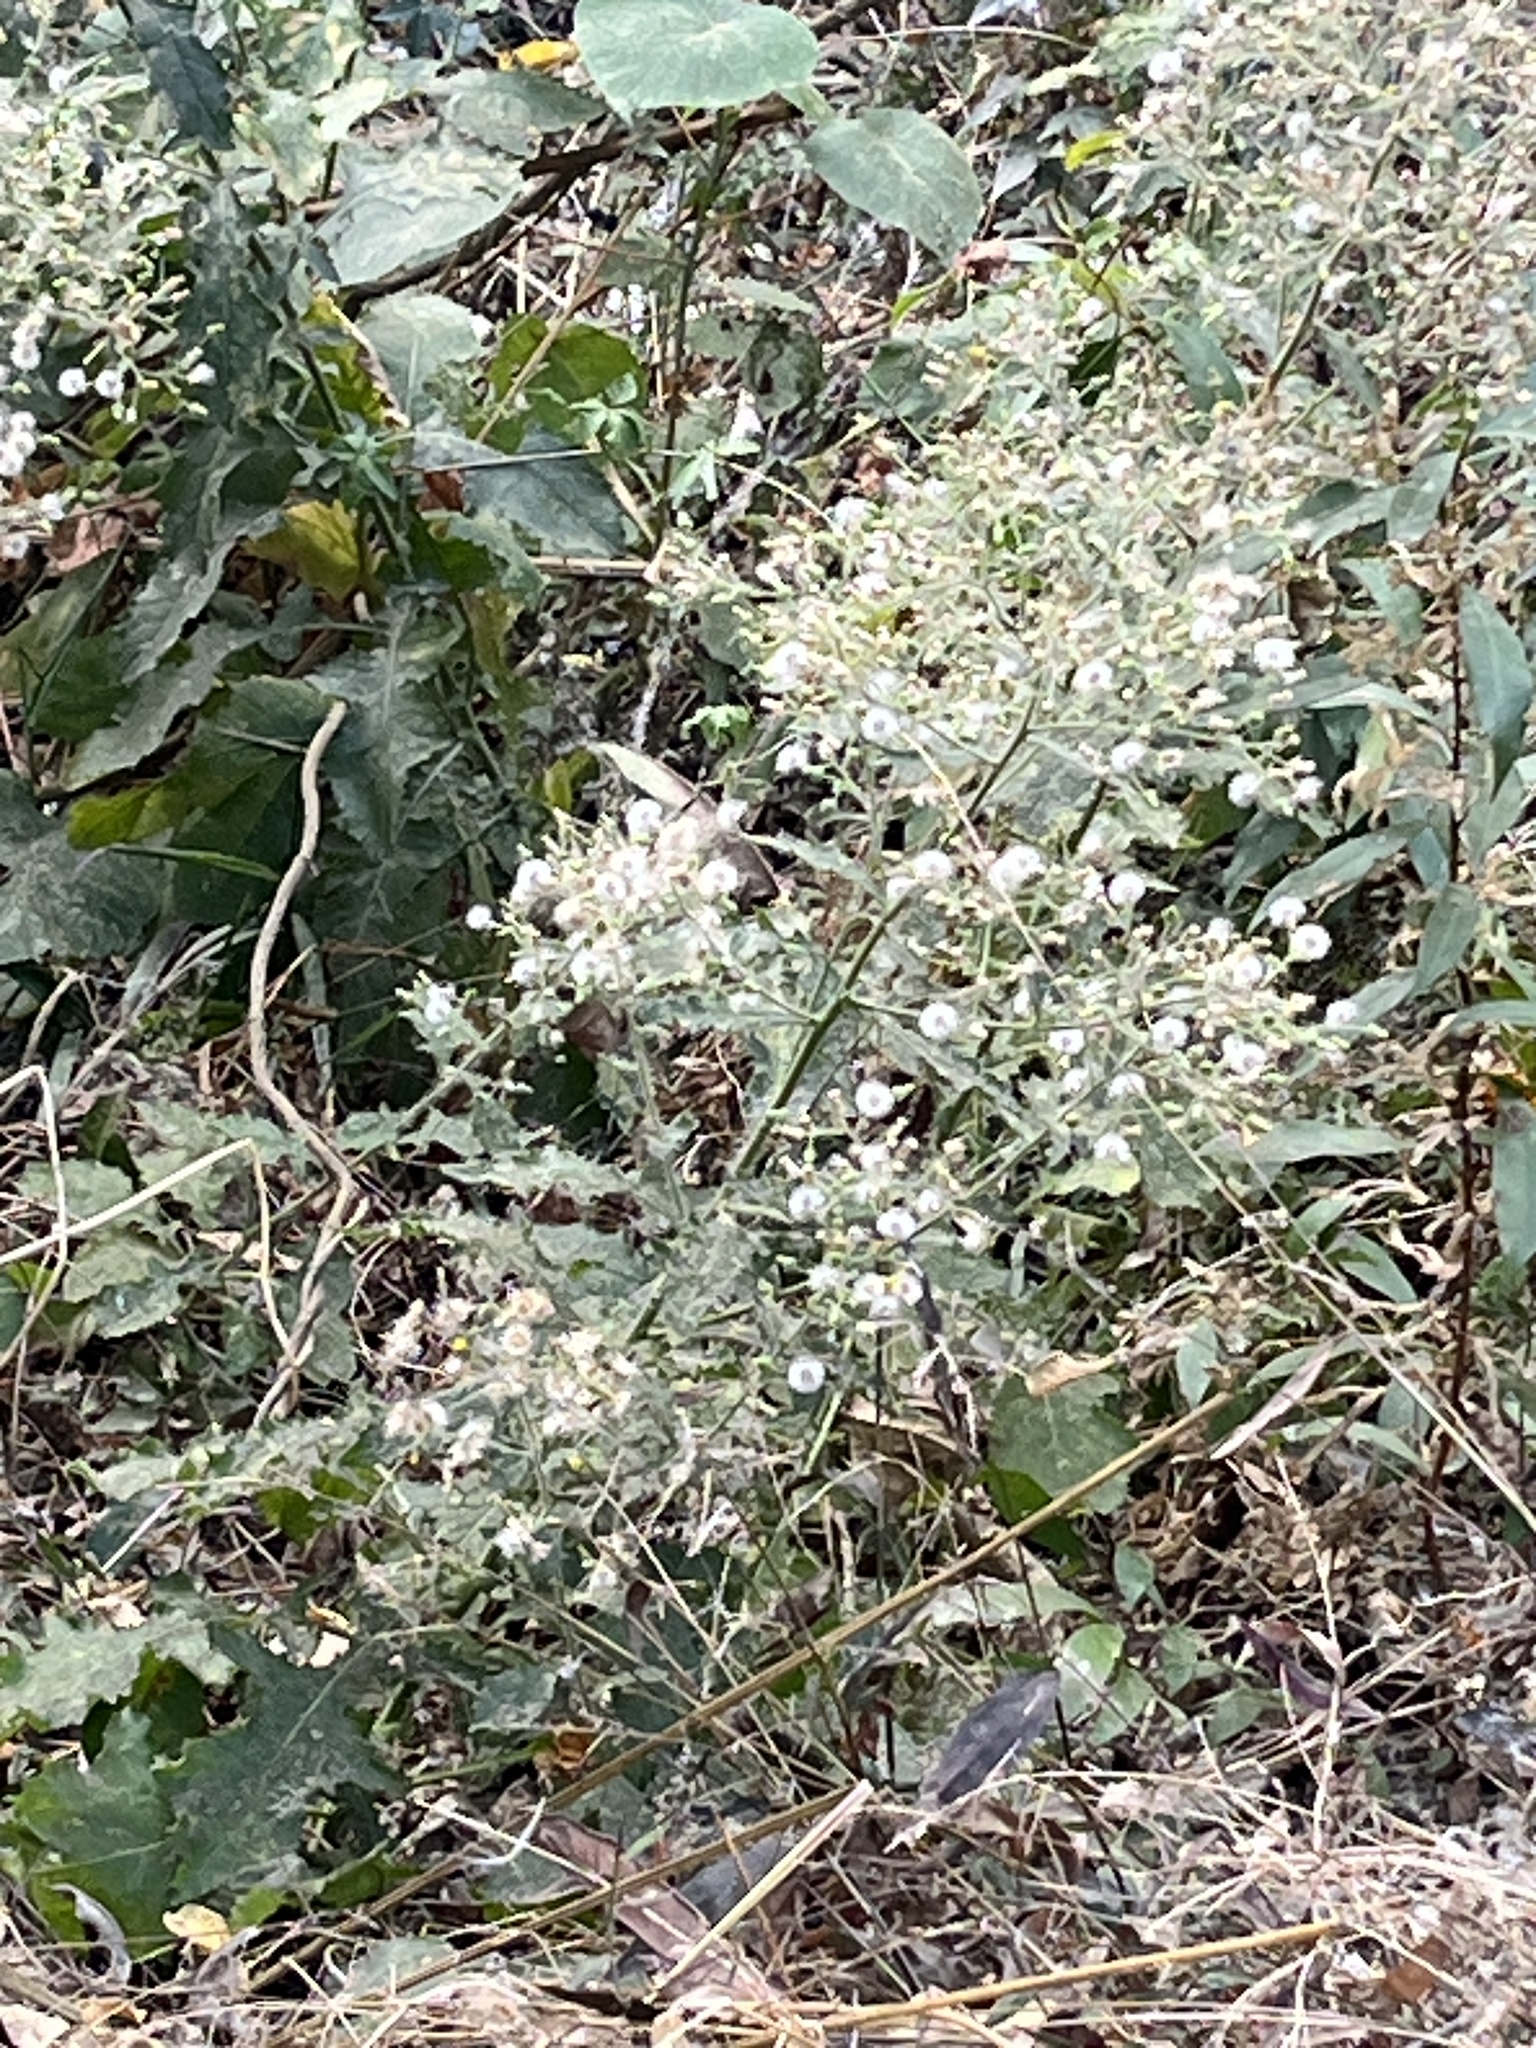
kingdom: Plantae
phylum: Tracheophyta
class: Magnoliopsida
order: Asterales
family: Asteraceae
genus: Blumea
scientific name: Blumea sinuata
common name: Cutleaf false oxtongue
